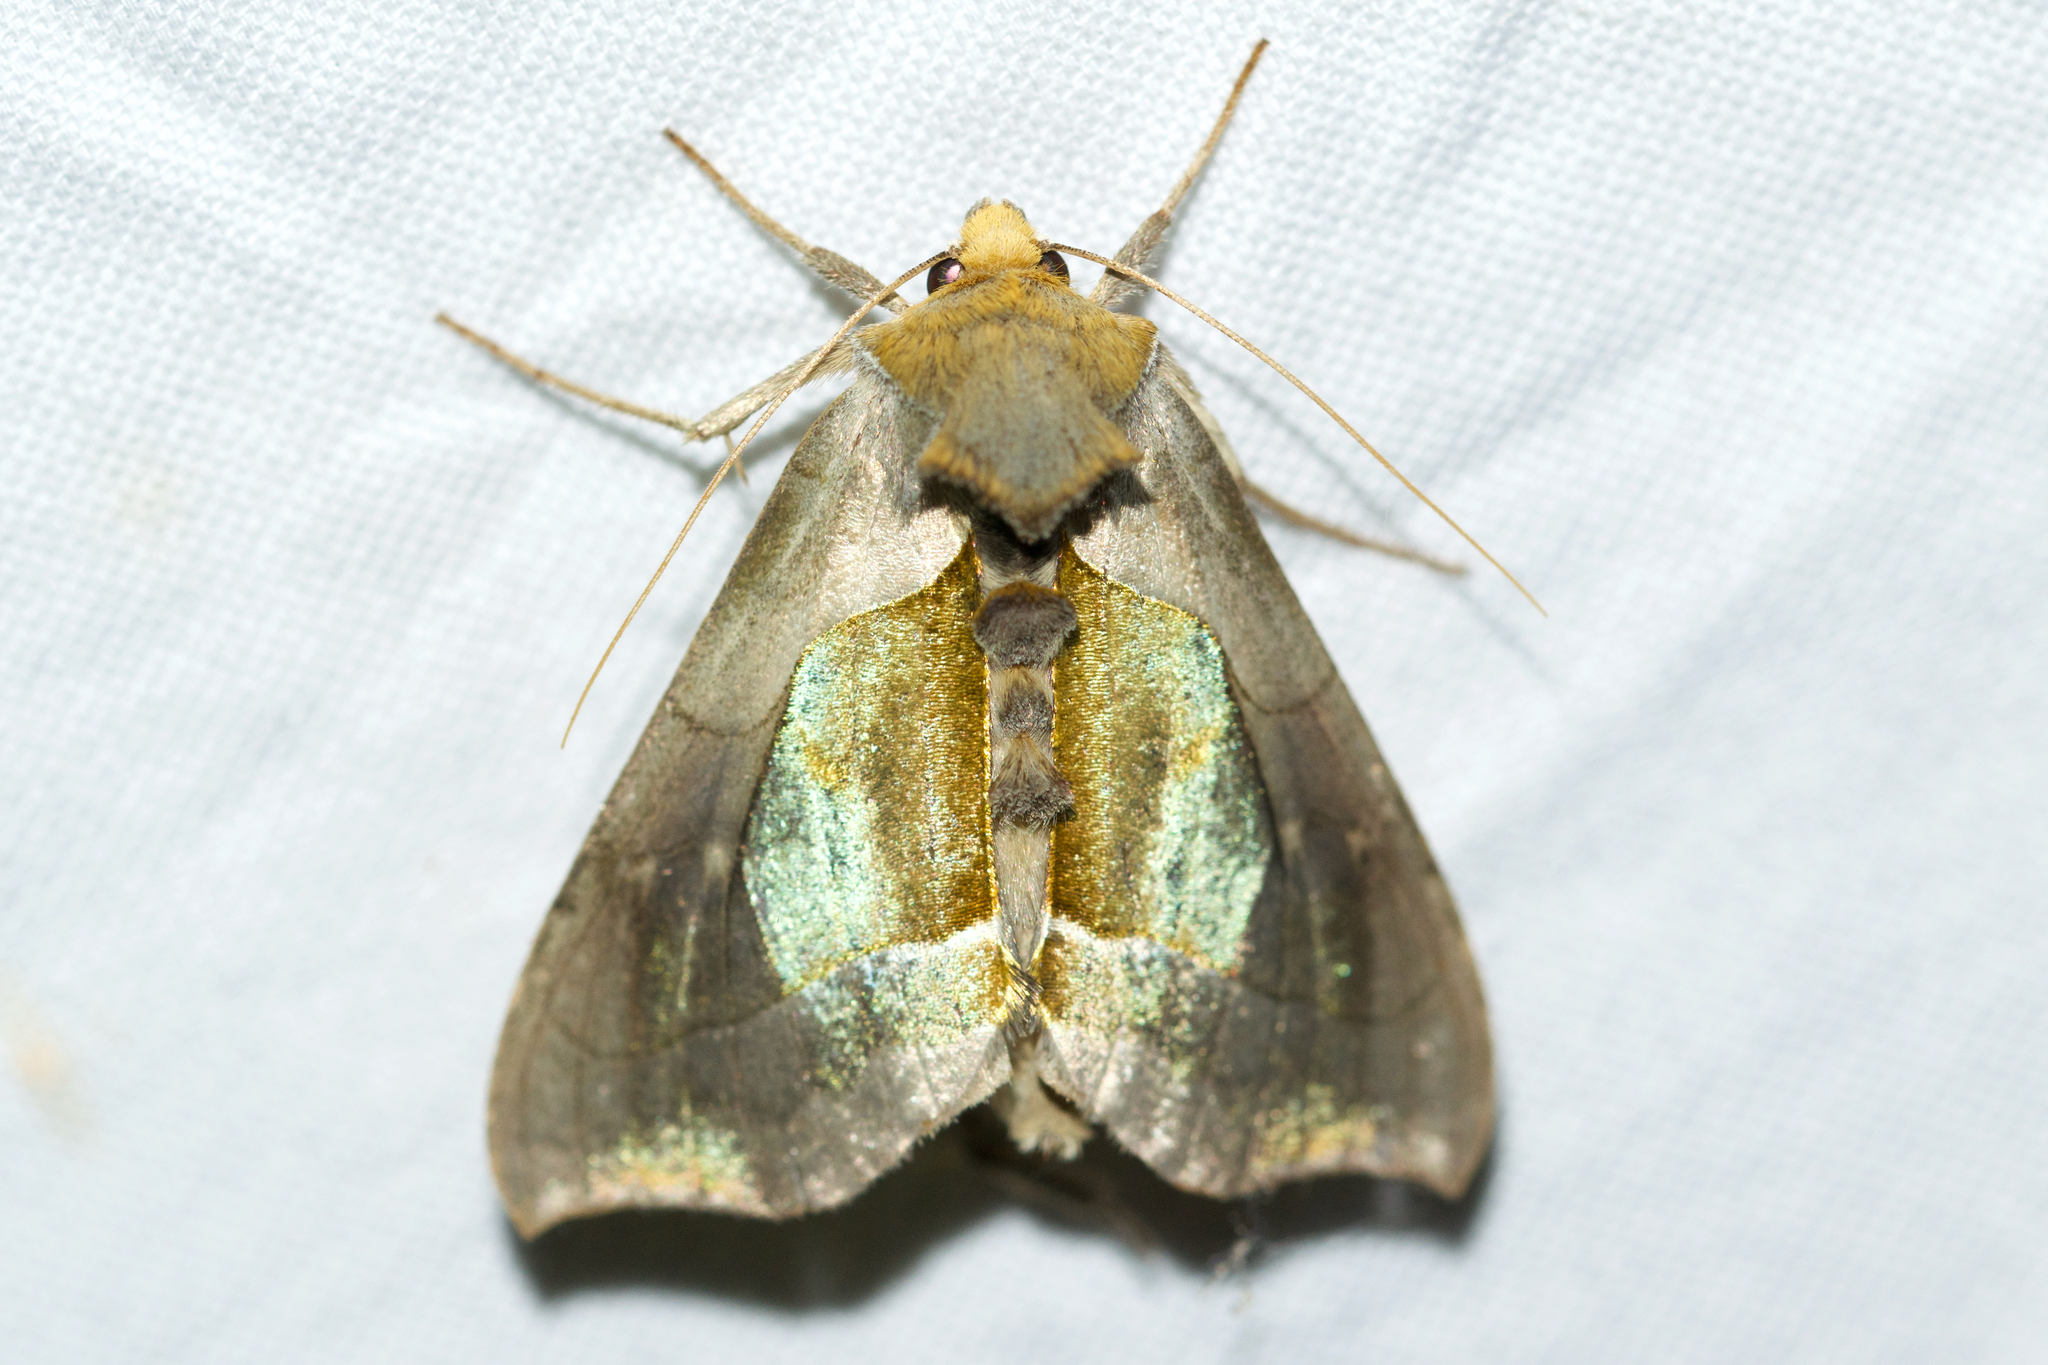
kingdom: Animalia
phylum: Arthropoda
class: Insecta
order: Lepidoptera
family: Noctuidae
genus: Diachrysia
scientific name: Diachrysia balluca
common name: Green-patched looper moth
